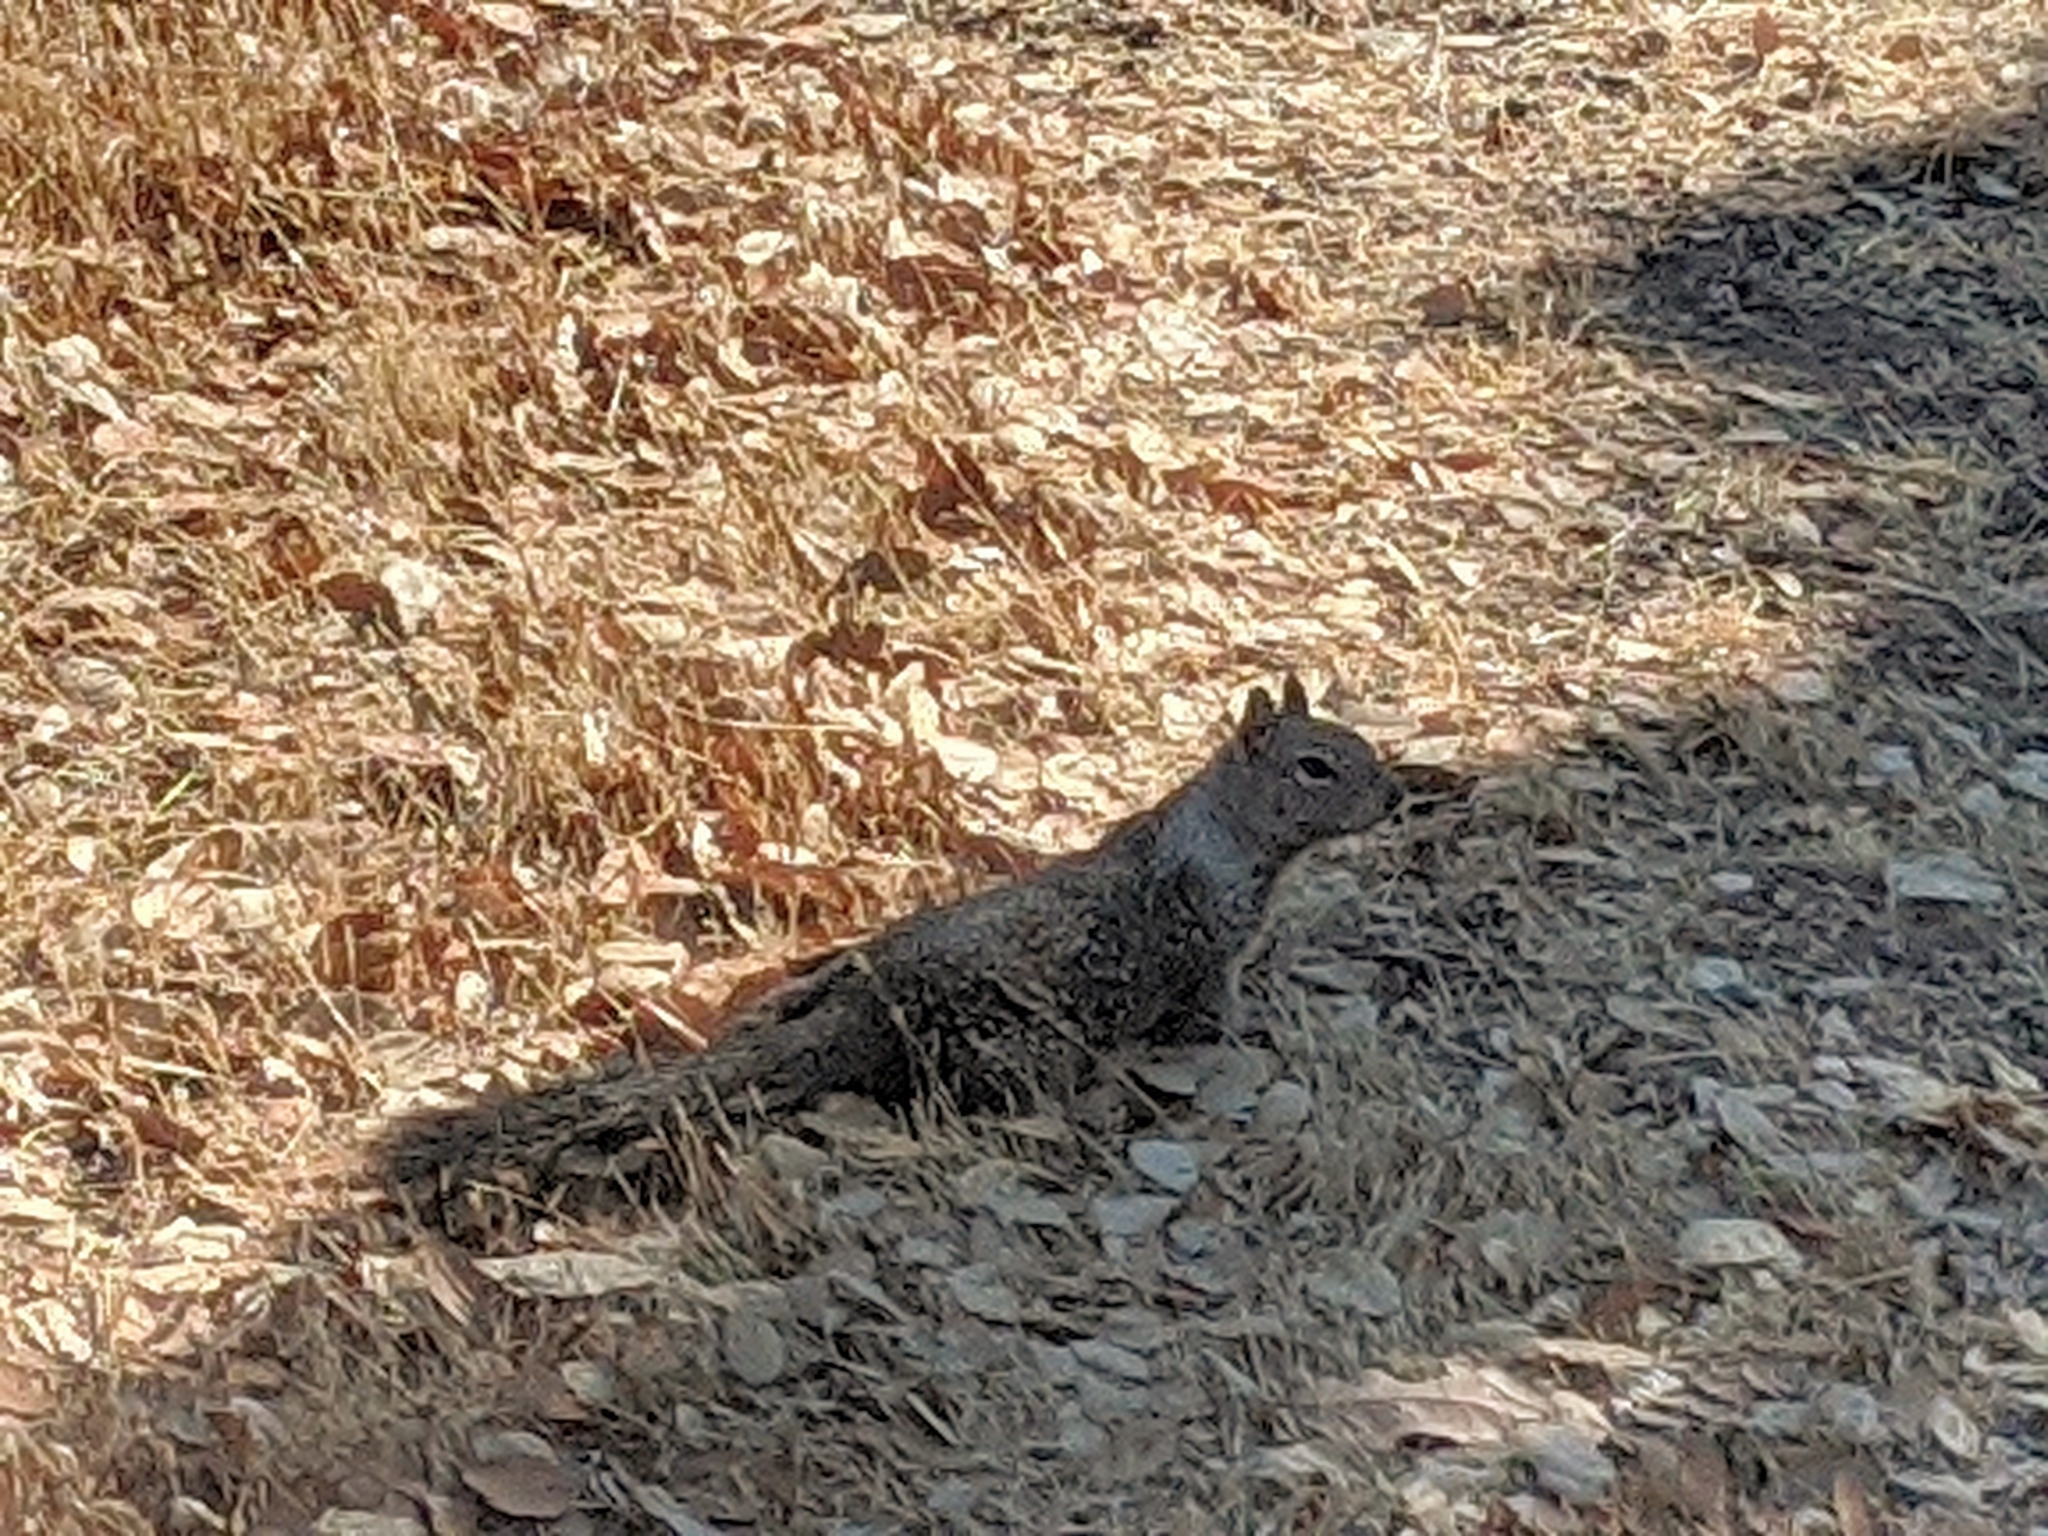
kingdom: Animalia
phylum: Chordata
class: Mammalia
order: Rodentia
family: Sciuridae
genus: Otospermophilus
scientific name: Otospermophilus beecheyi
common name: California ground squirrel
